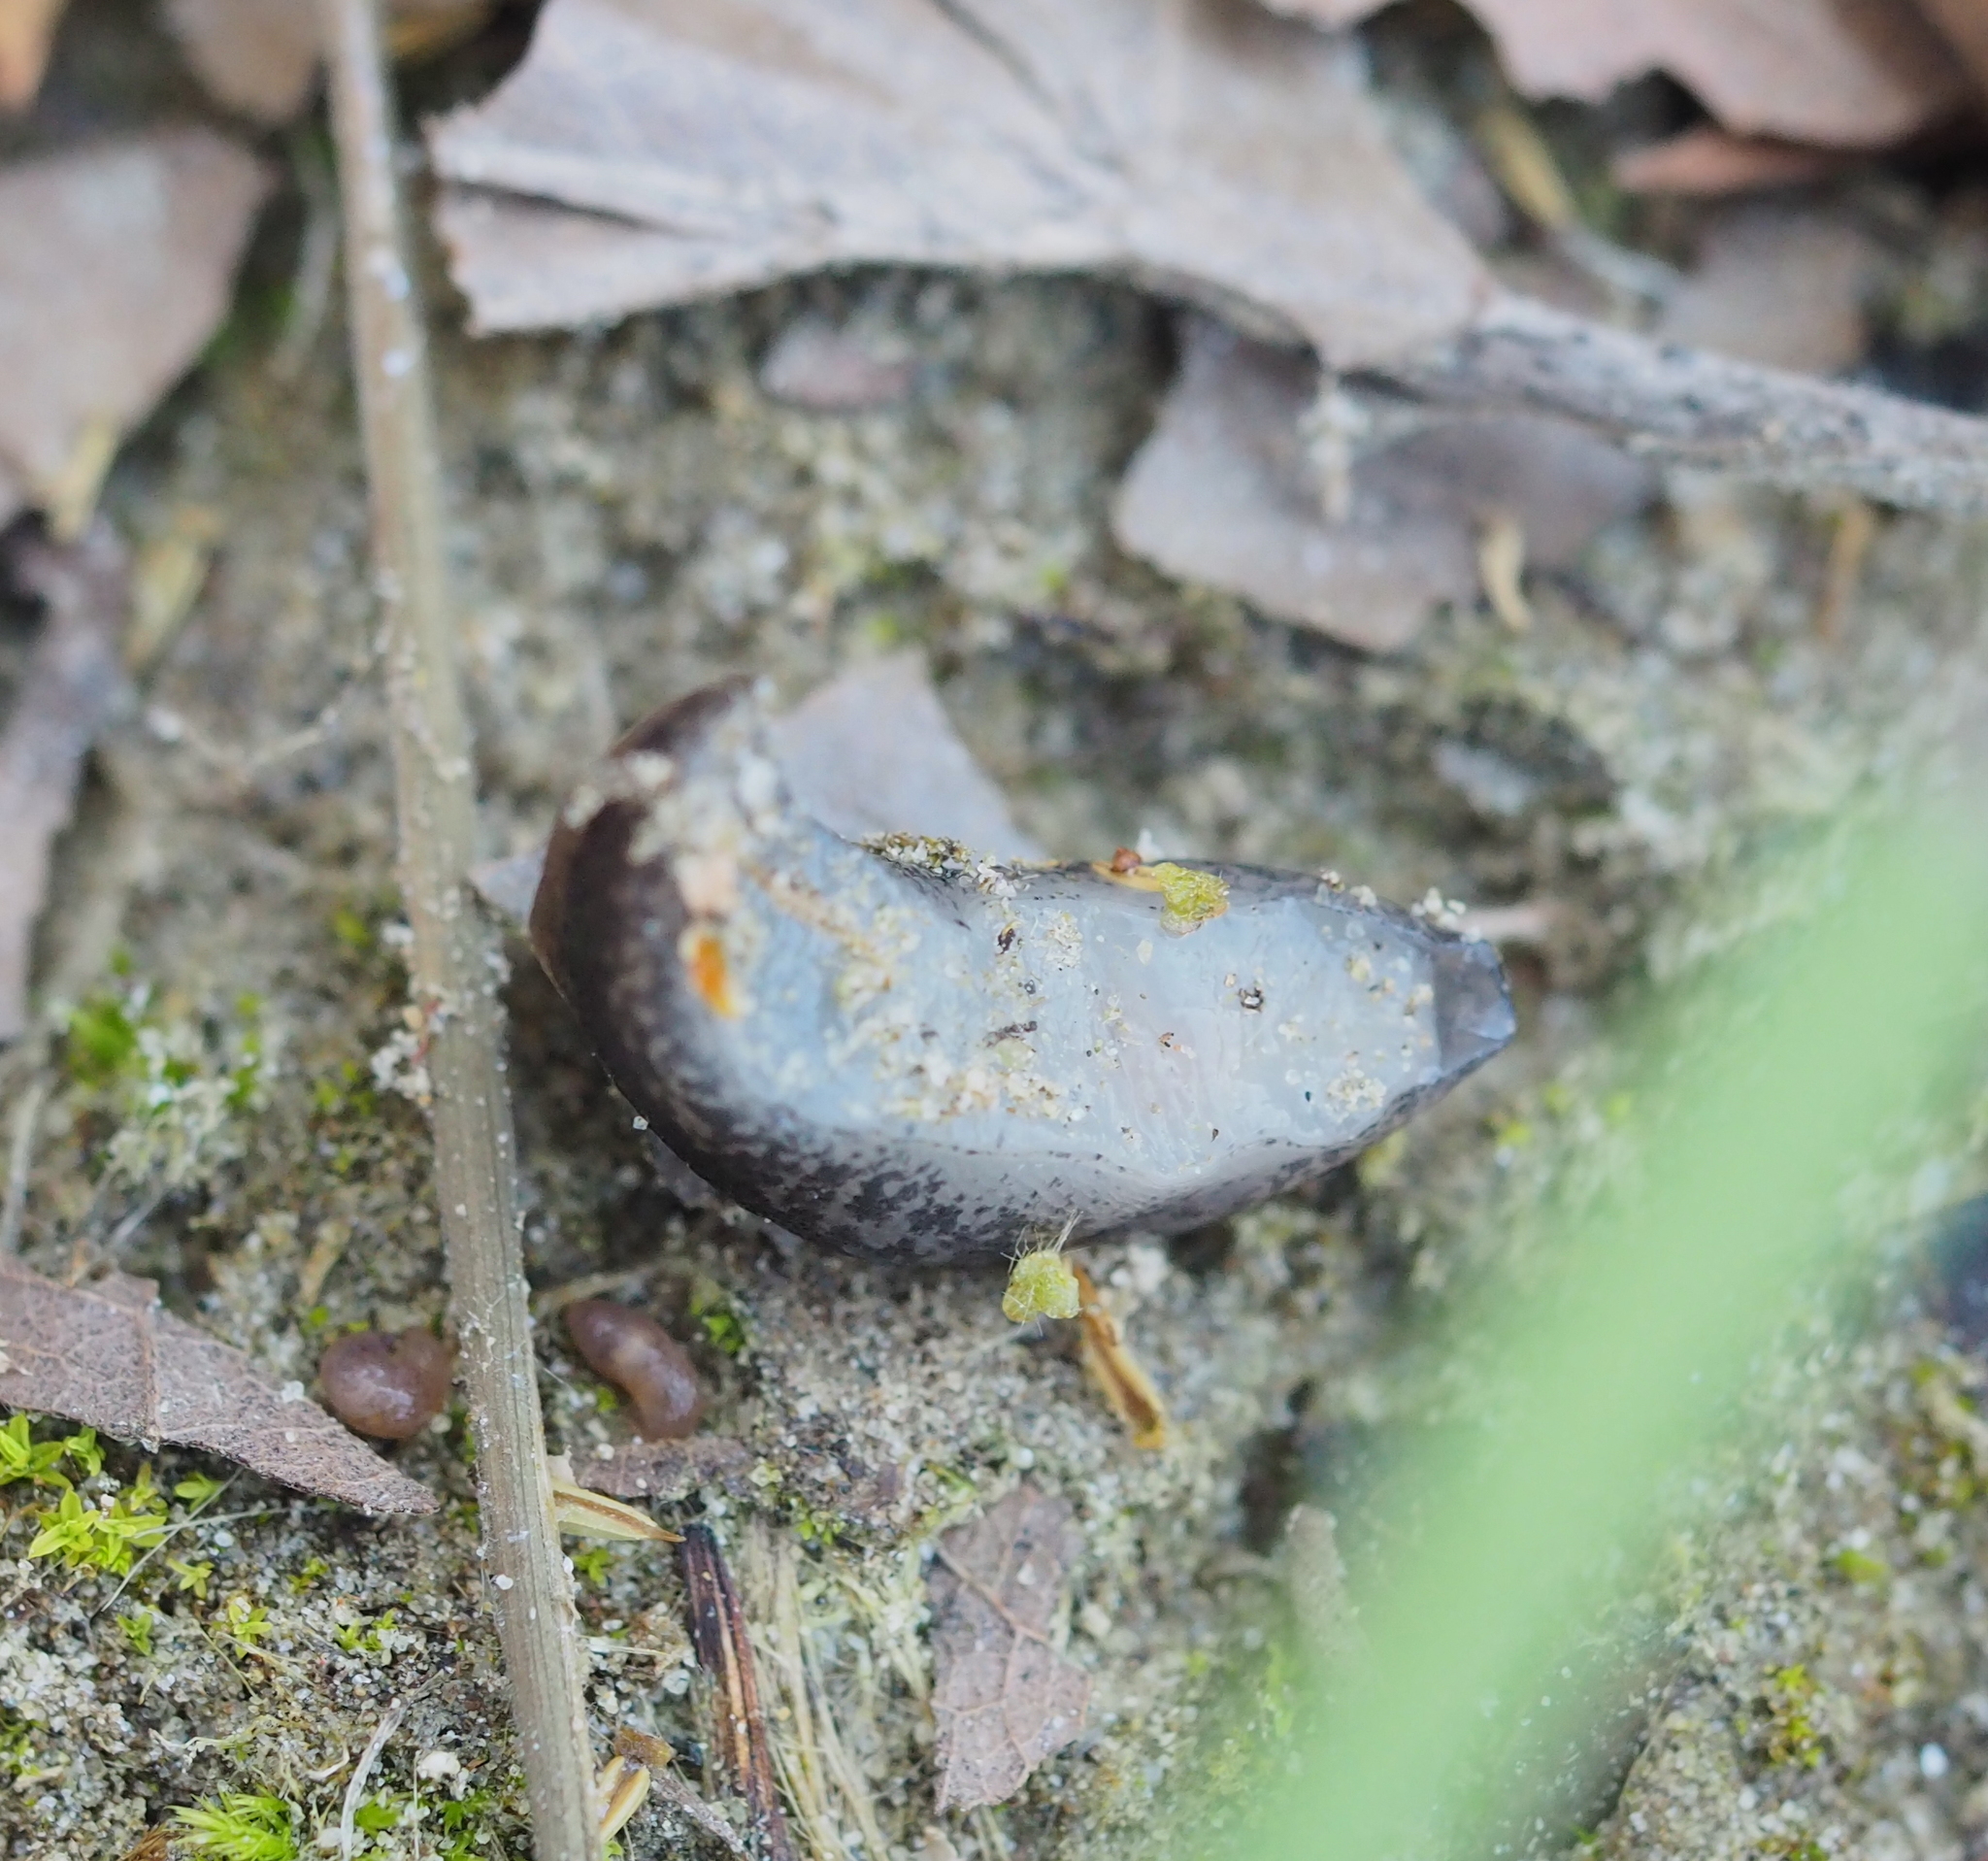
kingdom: Animalia
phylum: Mollusca
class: Gastropoda
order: Stylommatophora
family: Limacidae
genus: Limax
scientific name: Limax maximus
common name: Great grey slug
